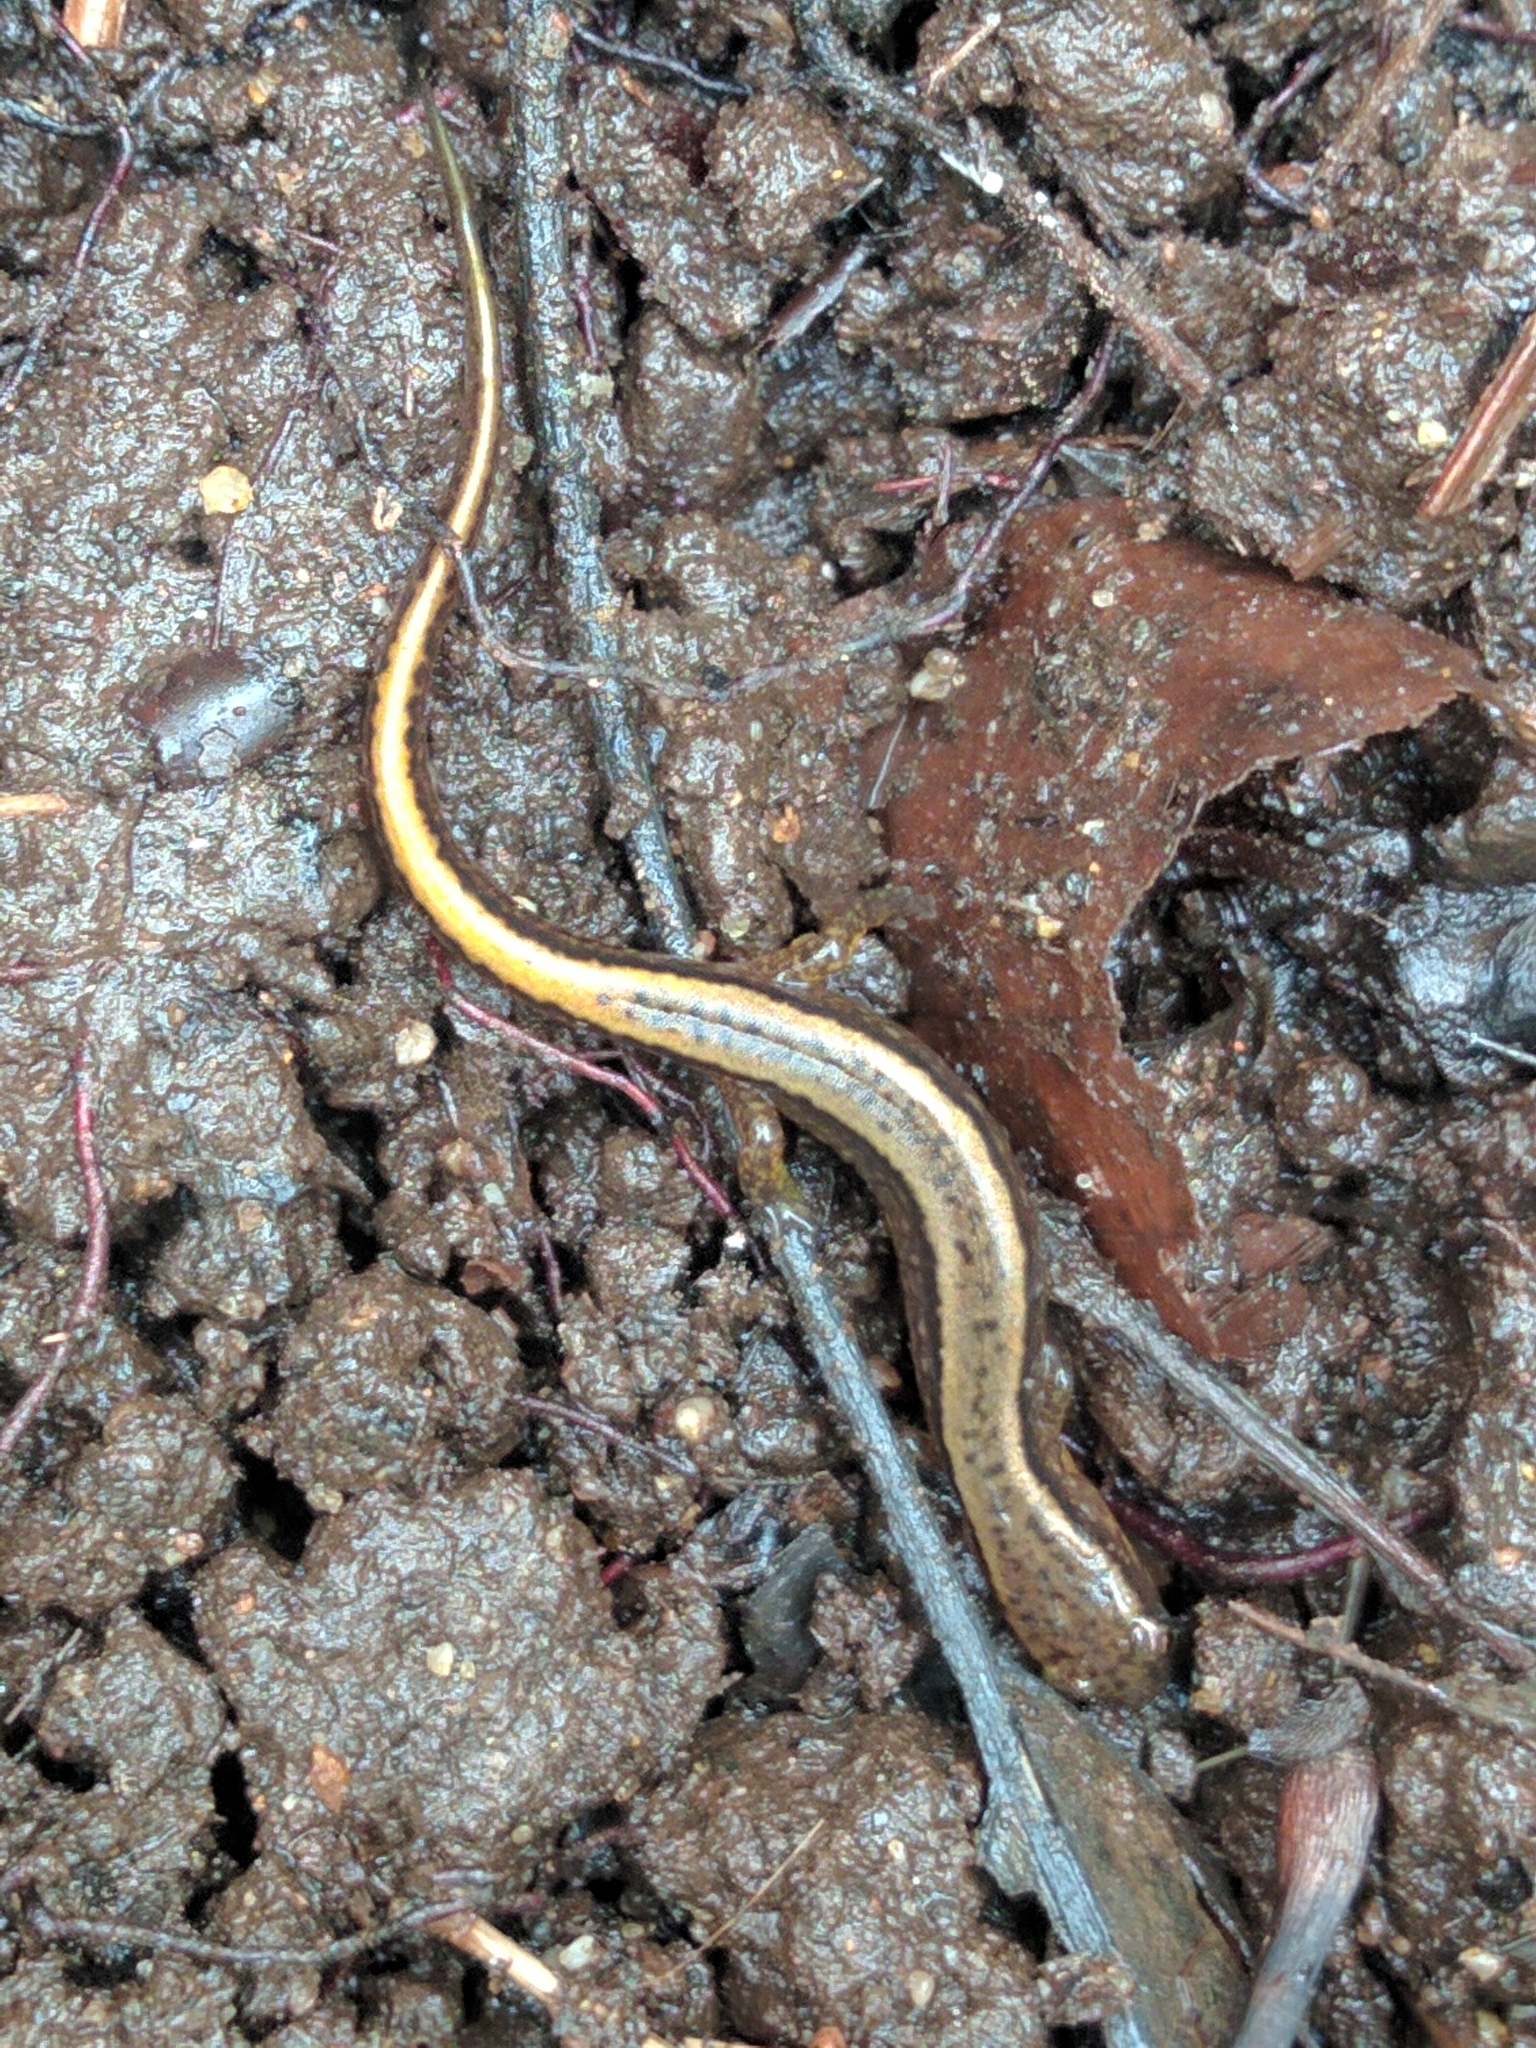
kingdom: Animalia
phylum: Chordata
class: Amphibia
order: Caudata
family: Plethodontidae
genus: Eurycea
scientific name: Eurycea bislineata
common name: Northern two-lined salamander
